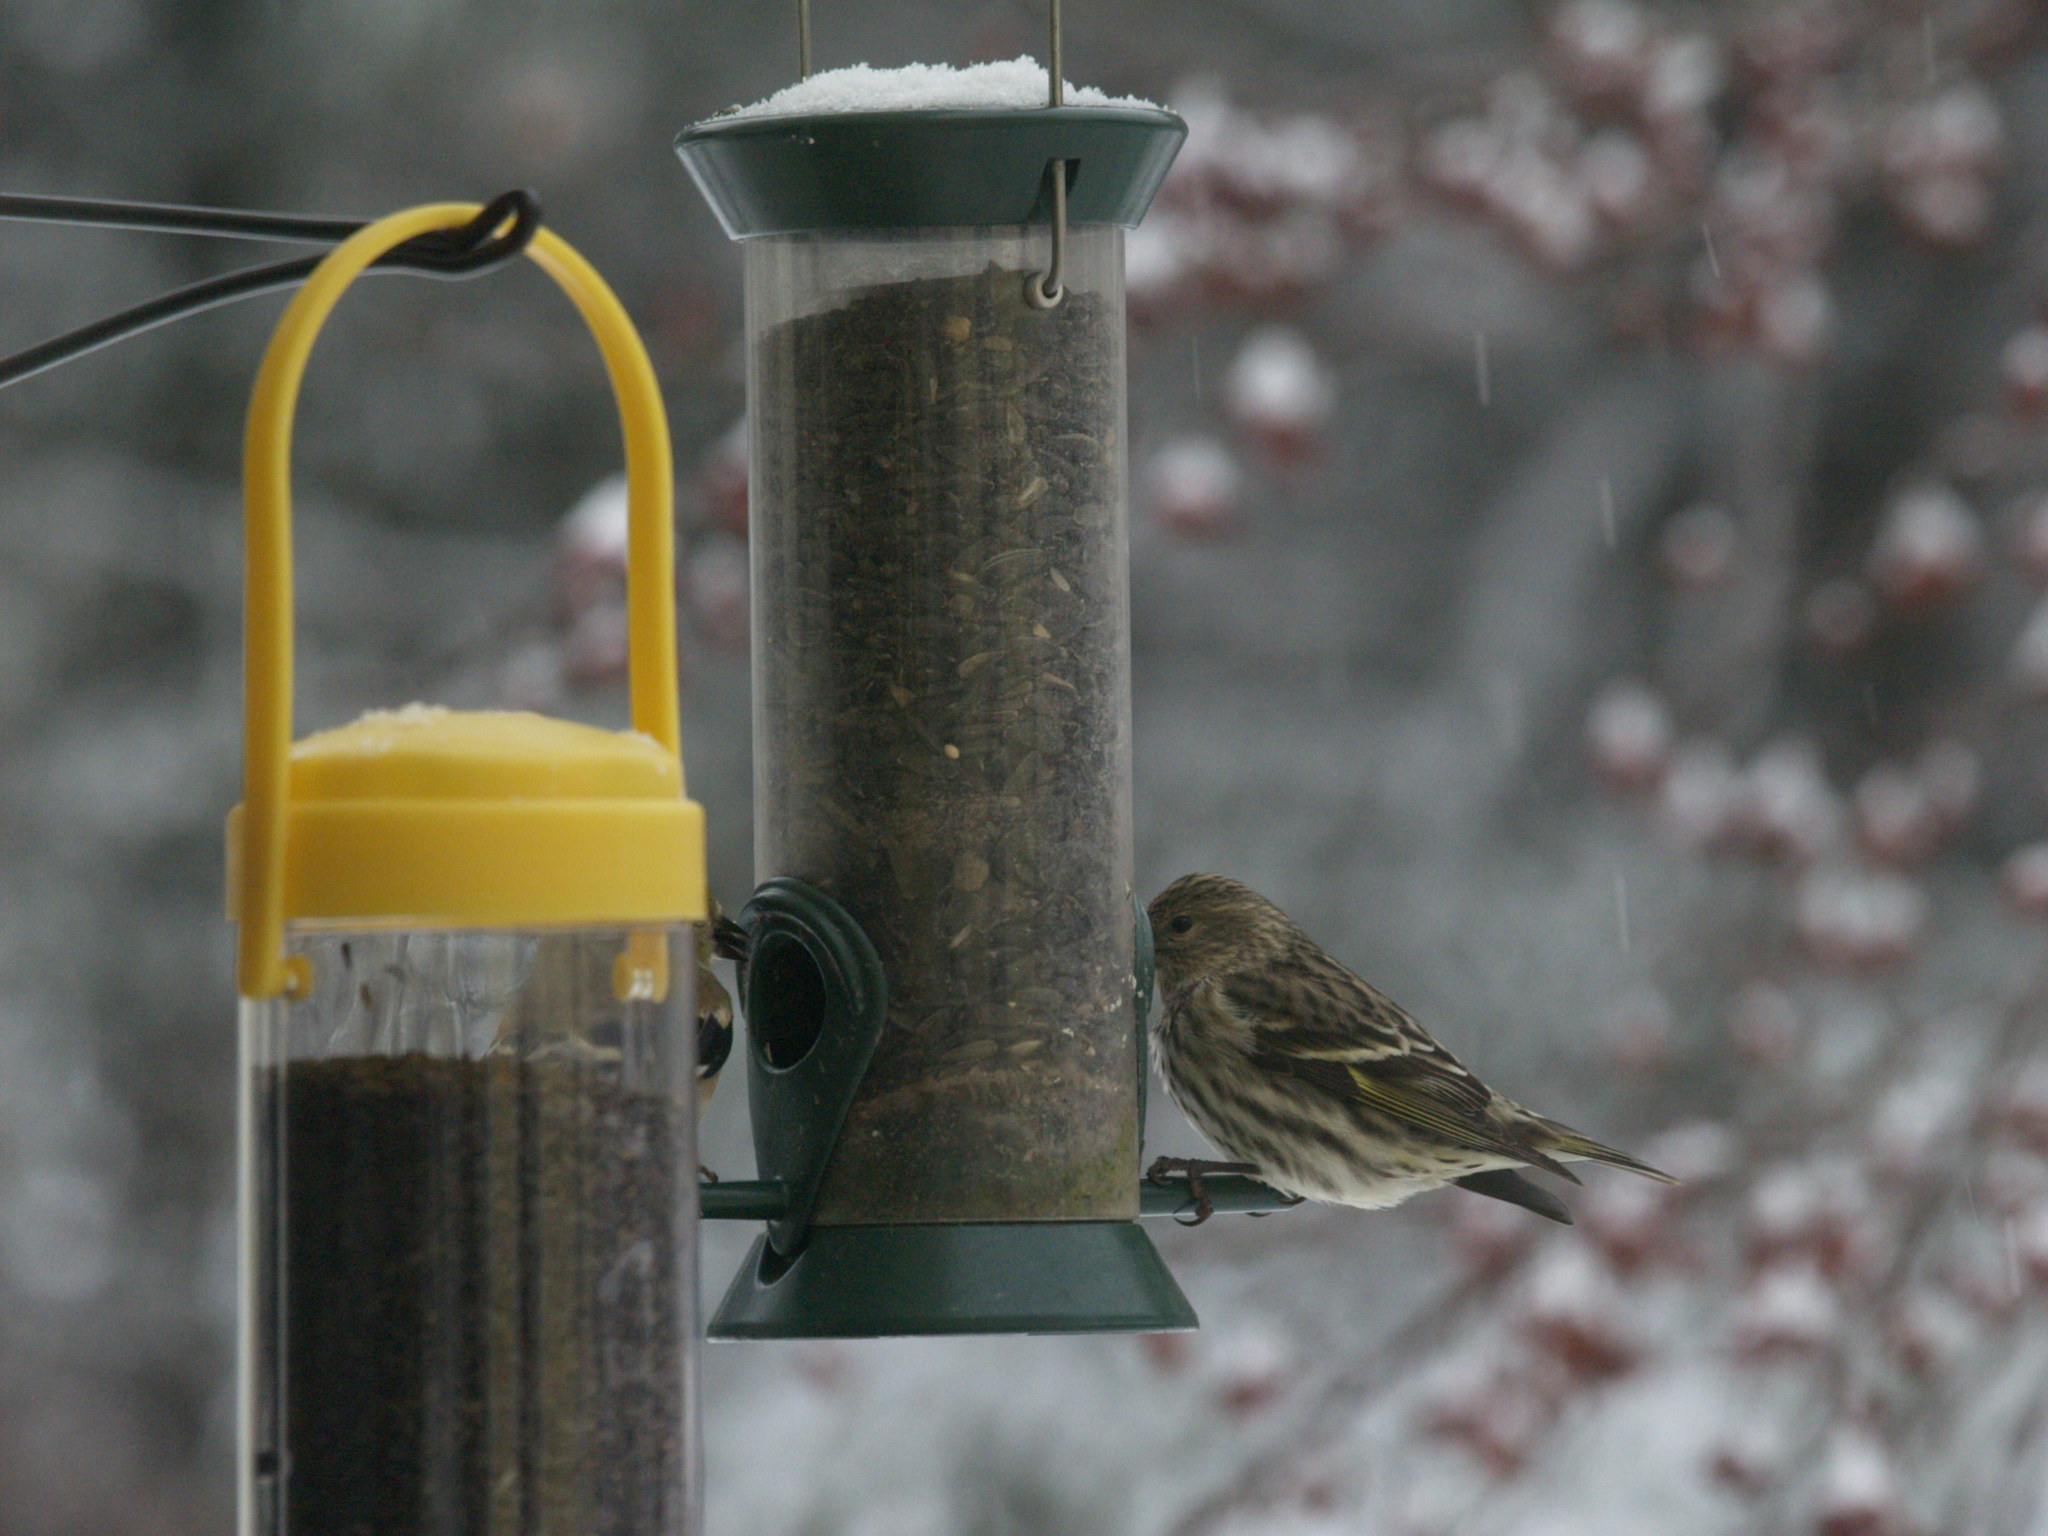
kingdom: Animalia
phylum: Chordata
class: Aves
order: Passeriformes
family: Fringillidae
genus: Spinus
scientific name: Spinus pinus
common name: Pine siskin
